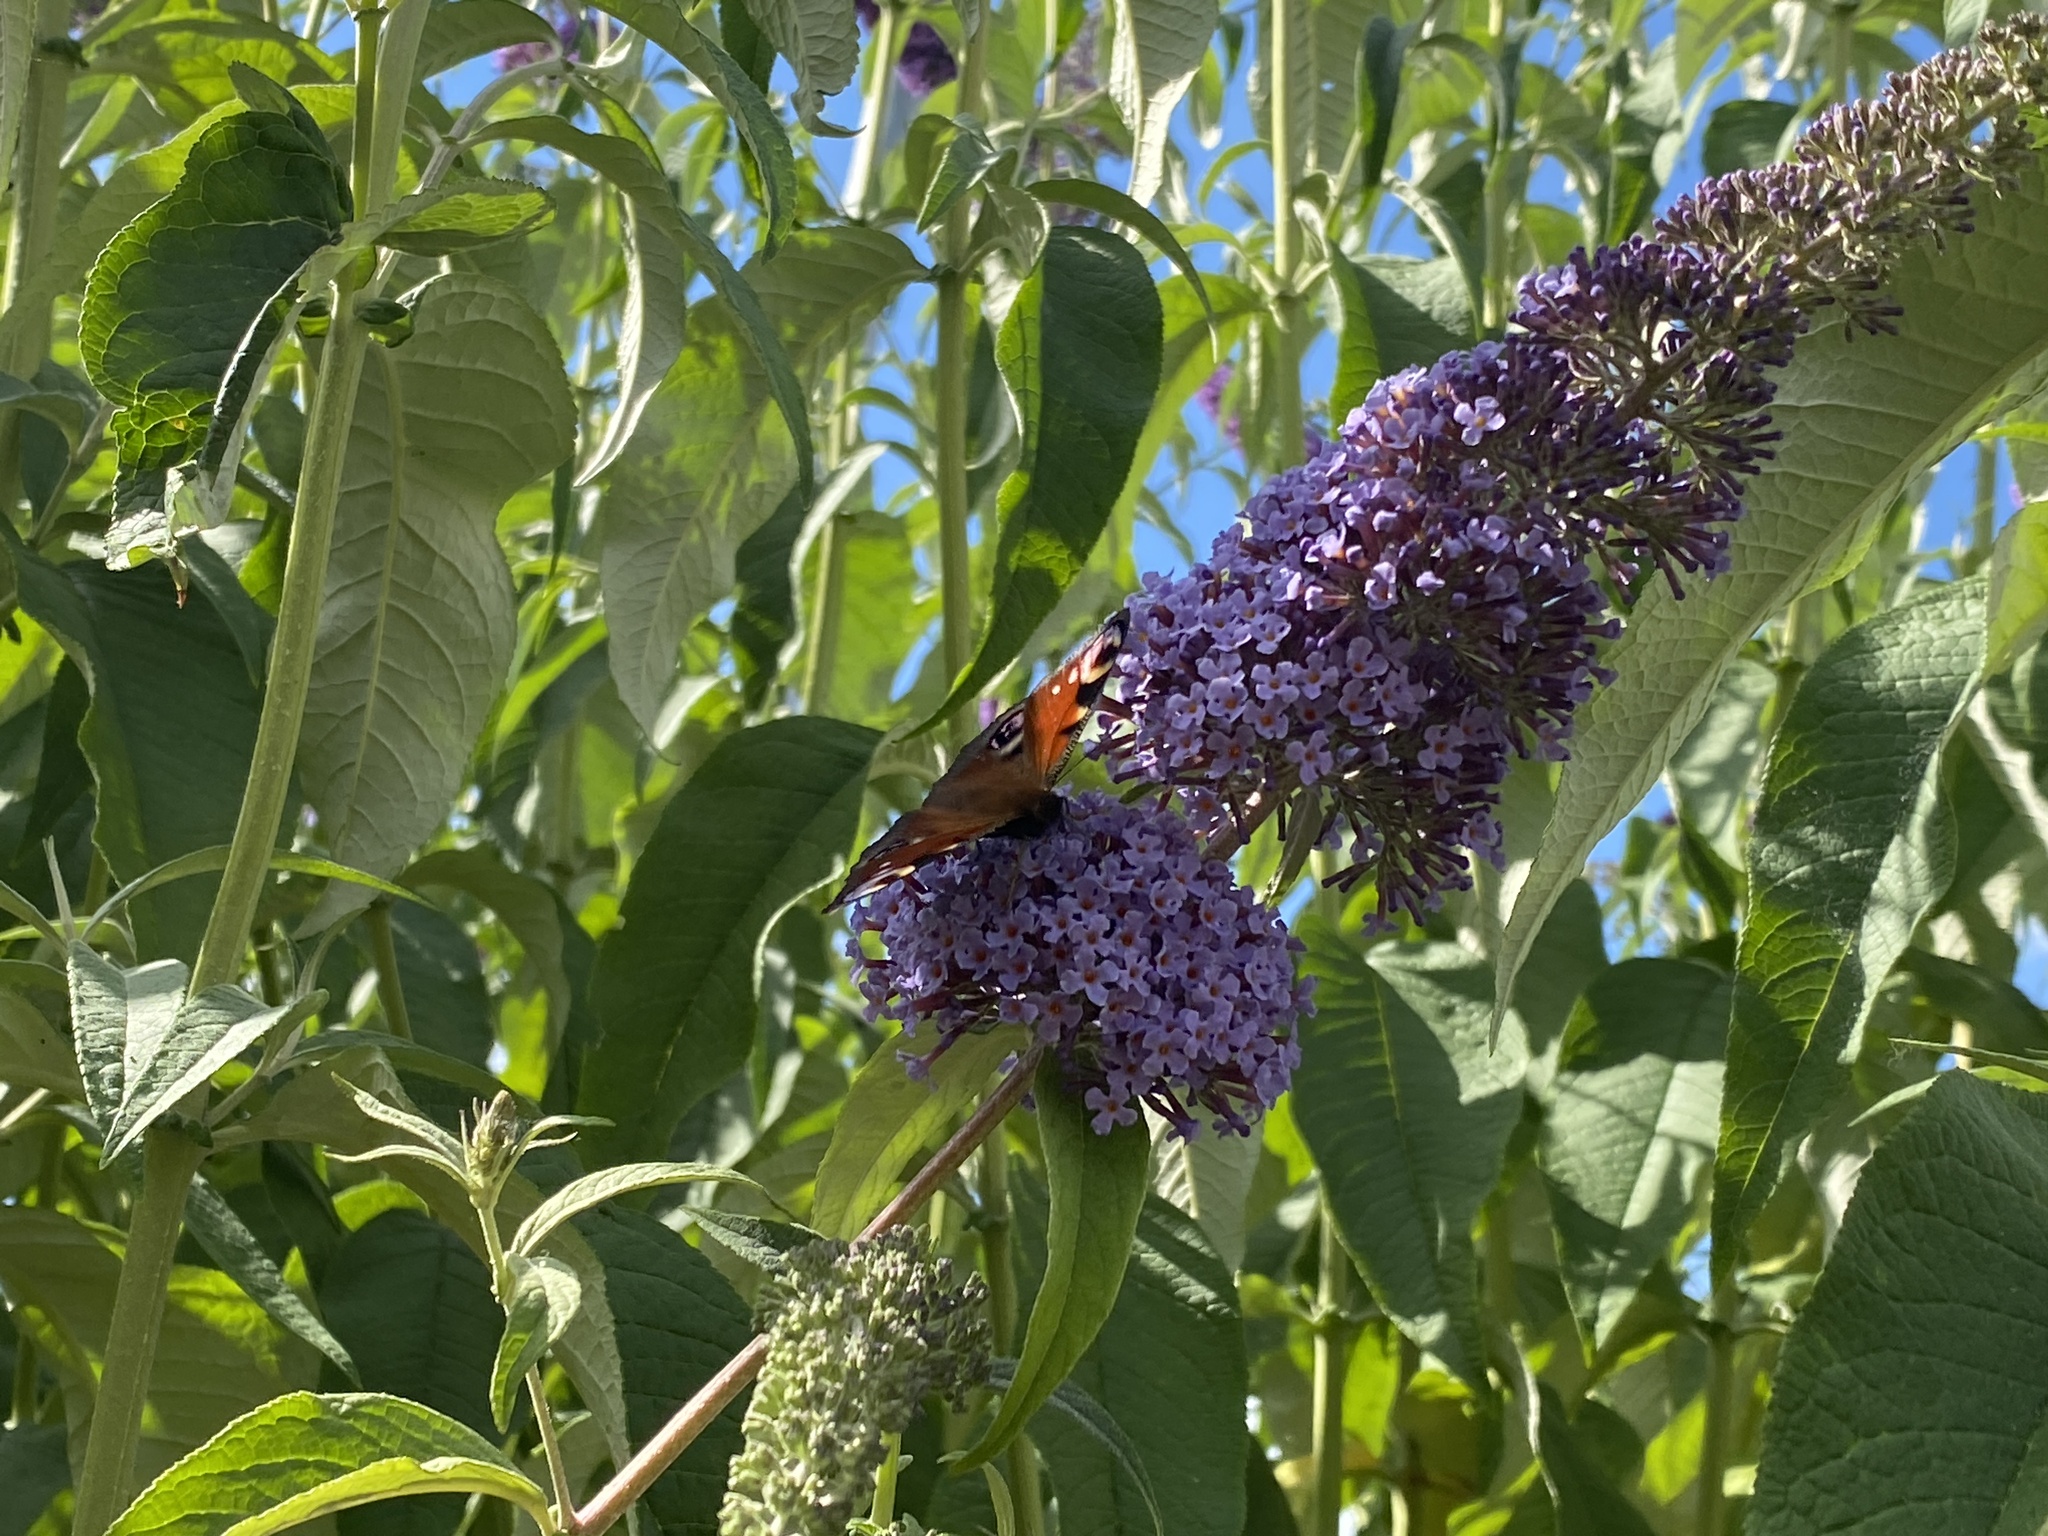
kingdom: Animalia
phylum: Arthropoda
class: Insecta
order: Lepidoptera
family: Nymphalidae
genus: Aglais
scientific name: Aglais io
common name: Peacock
